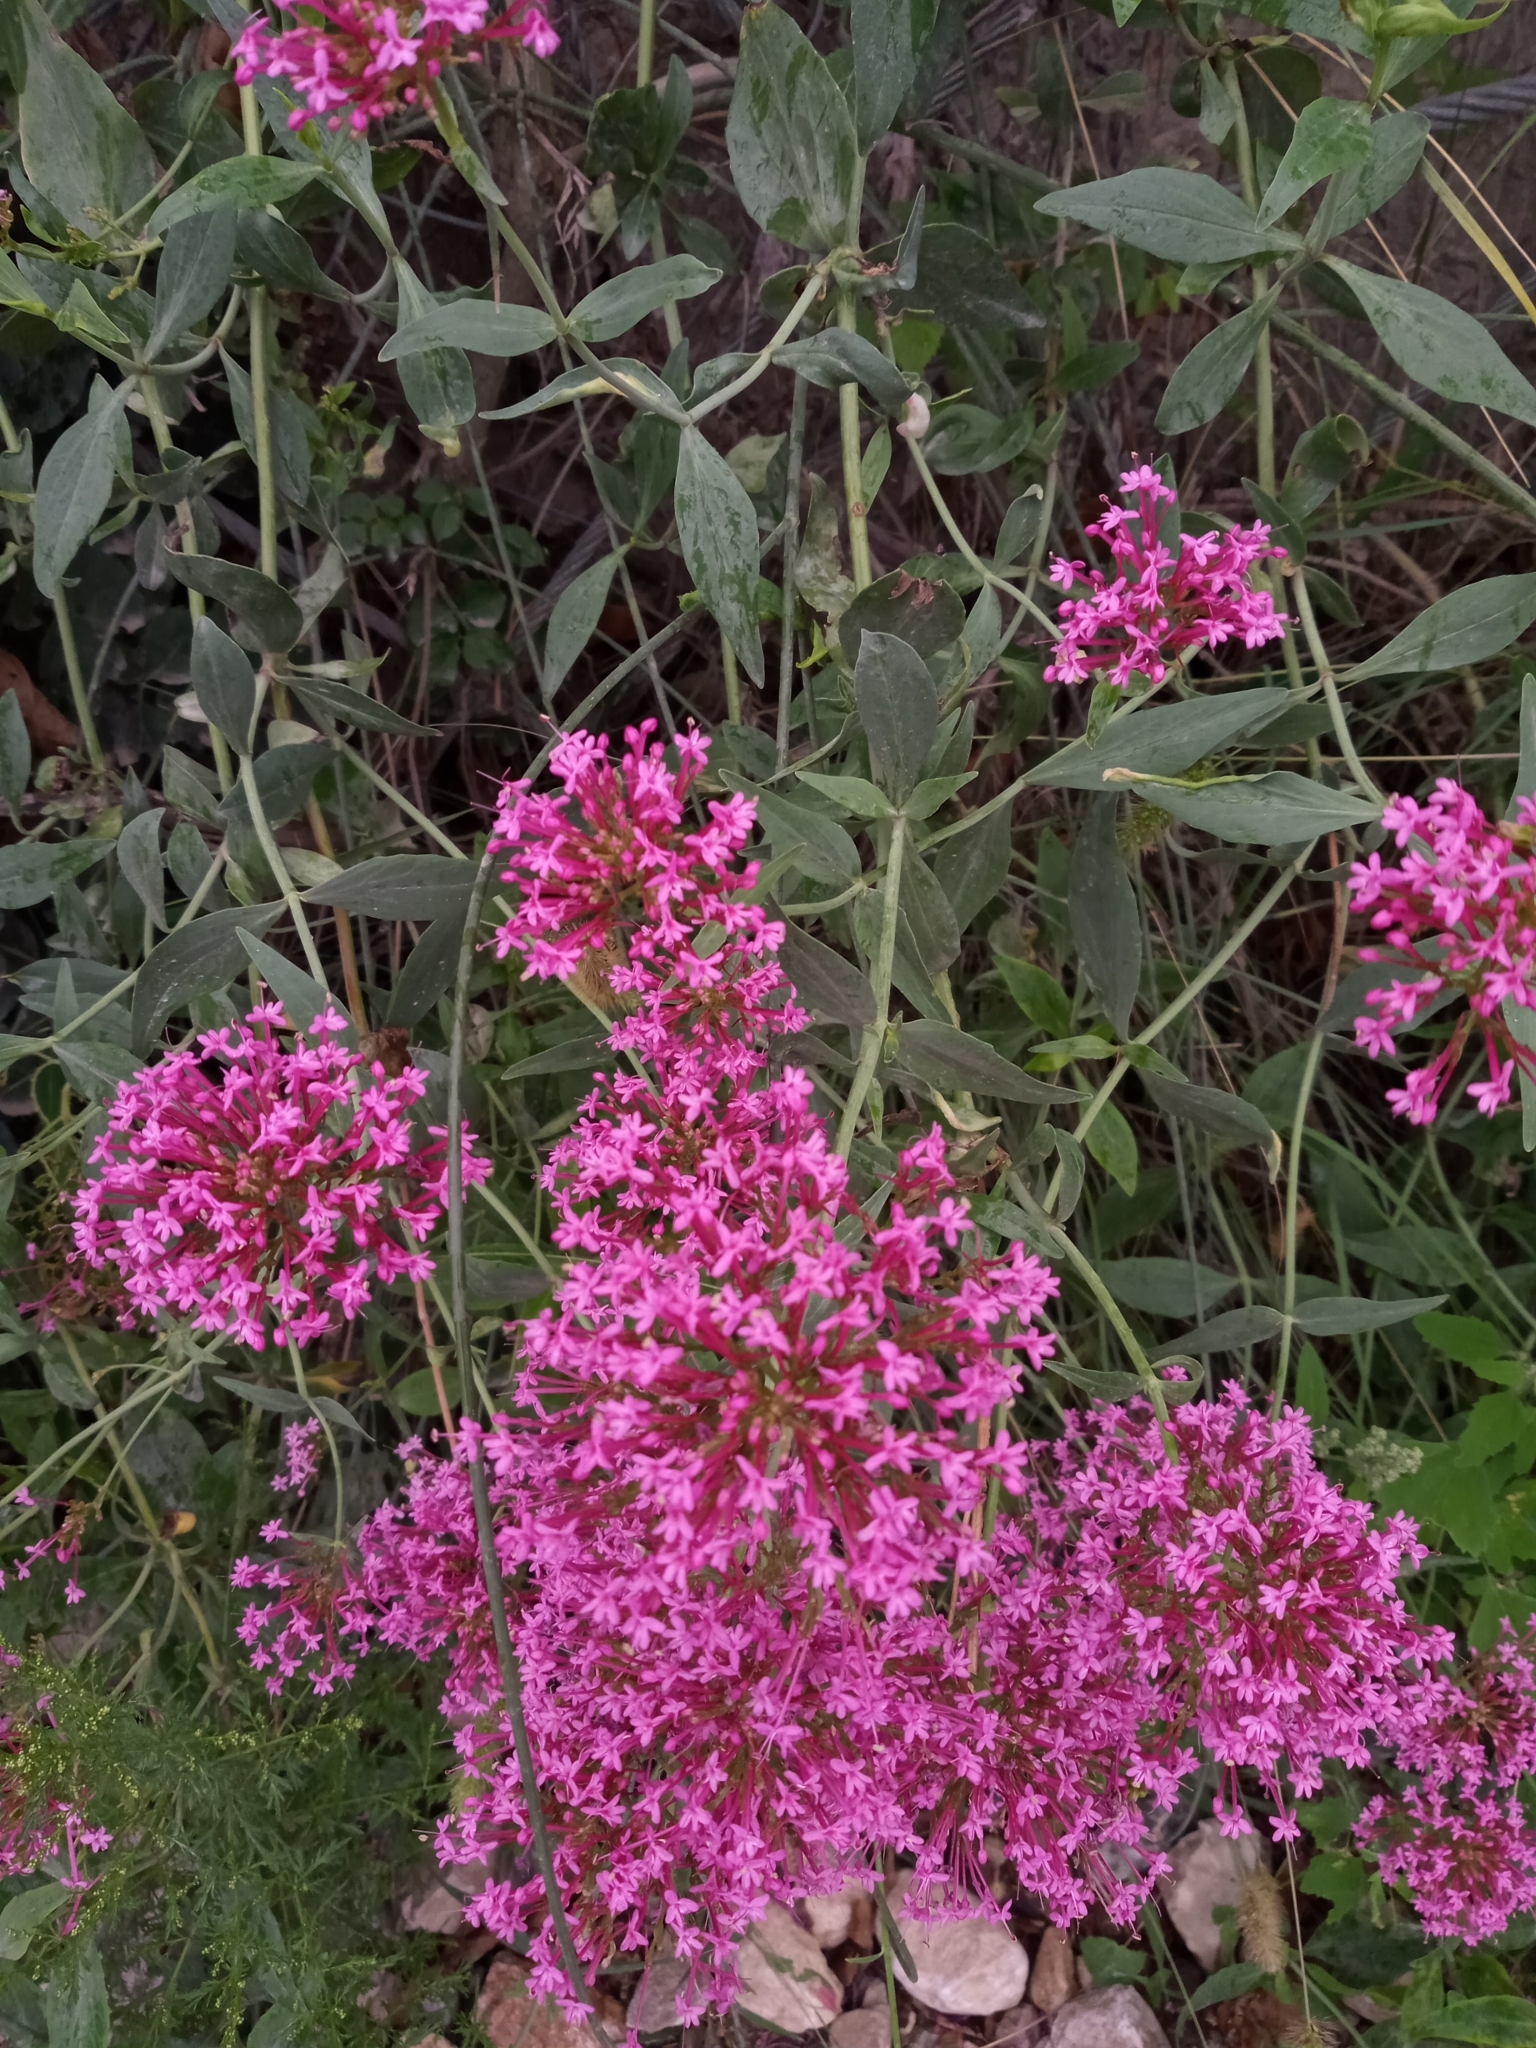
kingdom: Plantae
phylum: Tracheophyta
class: Magnoliopsida
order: Dipsacales
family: Caprifoliaceae
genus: Centranthus
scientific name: Centranthus ruber
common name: Red valerian
